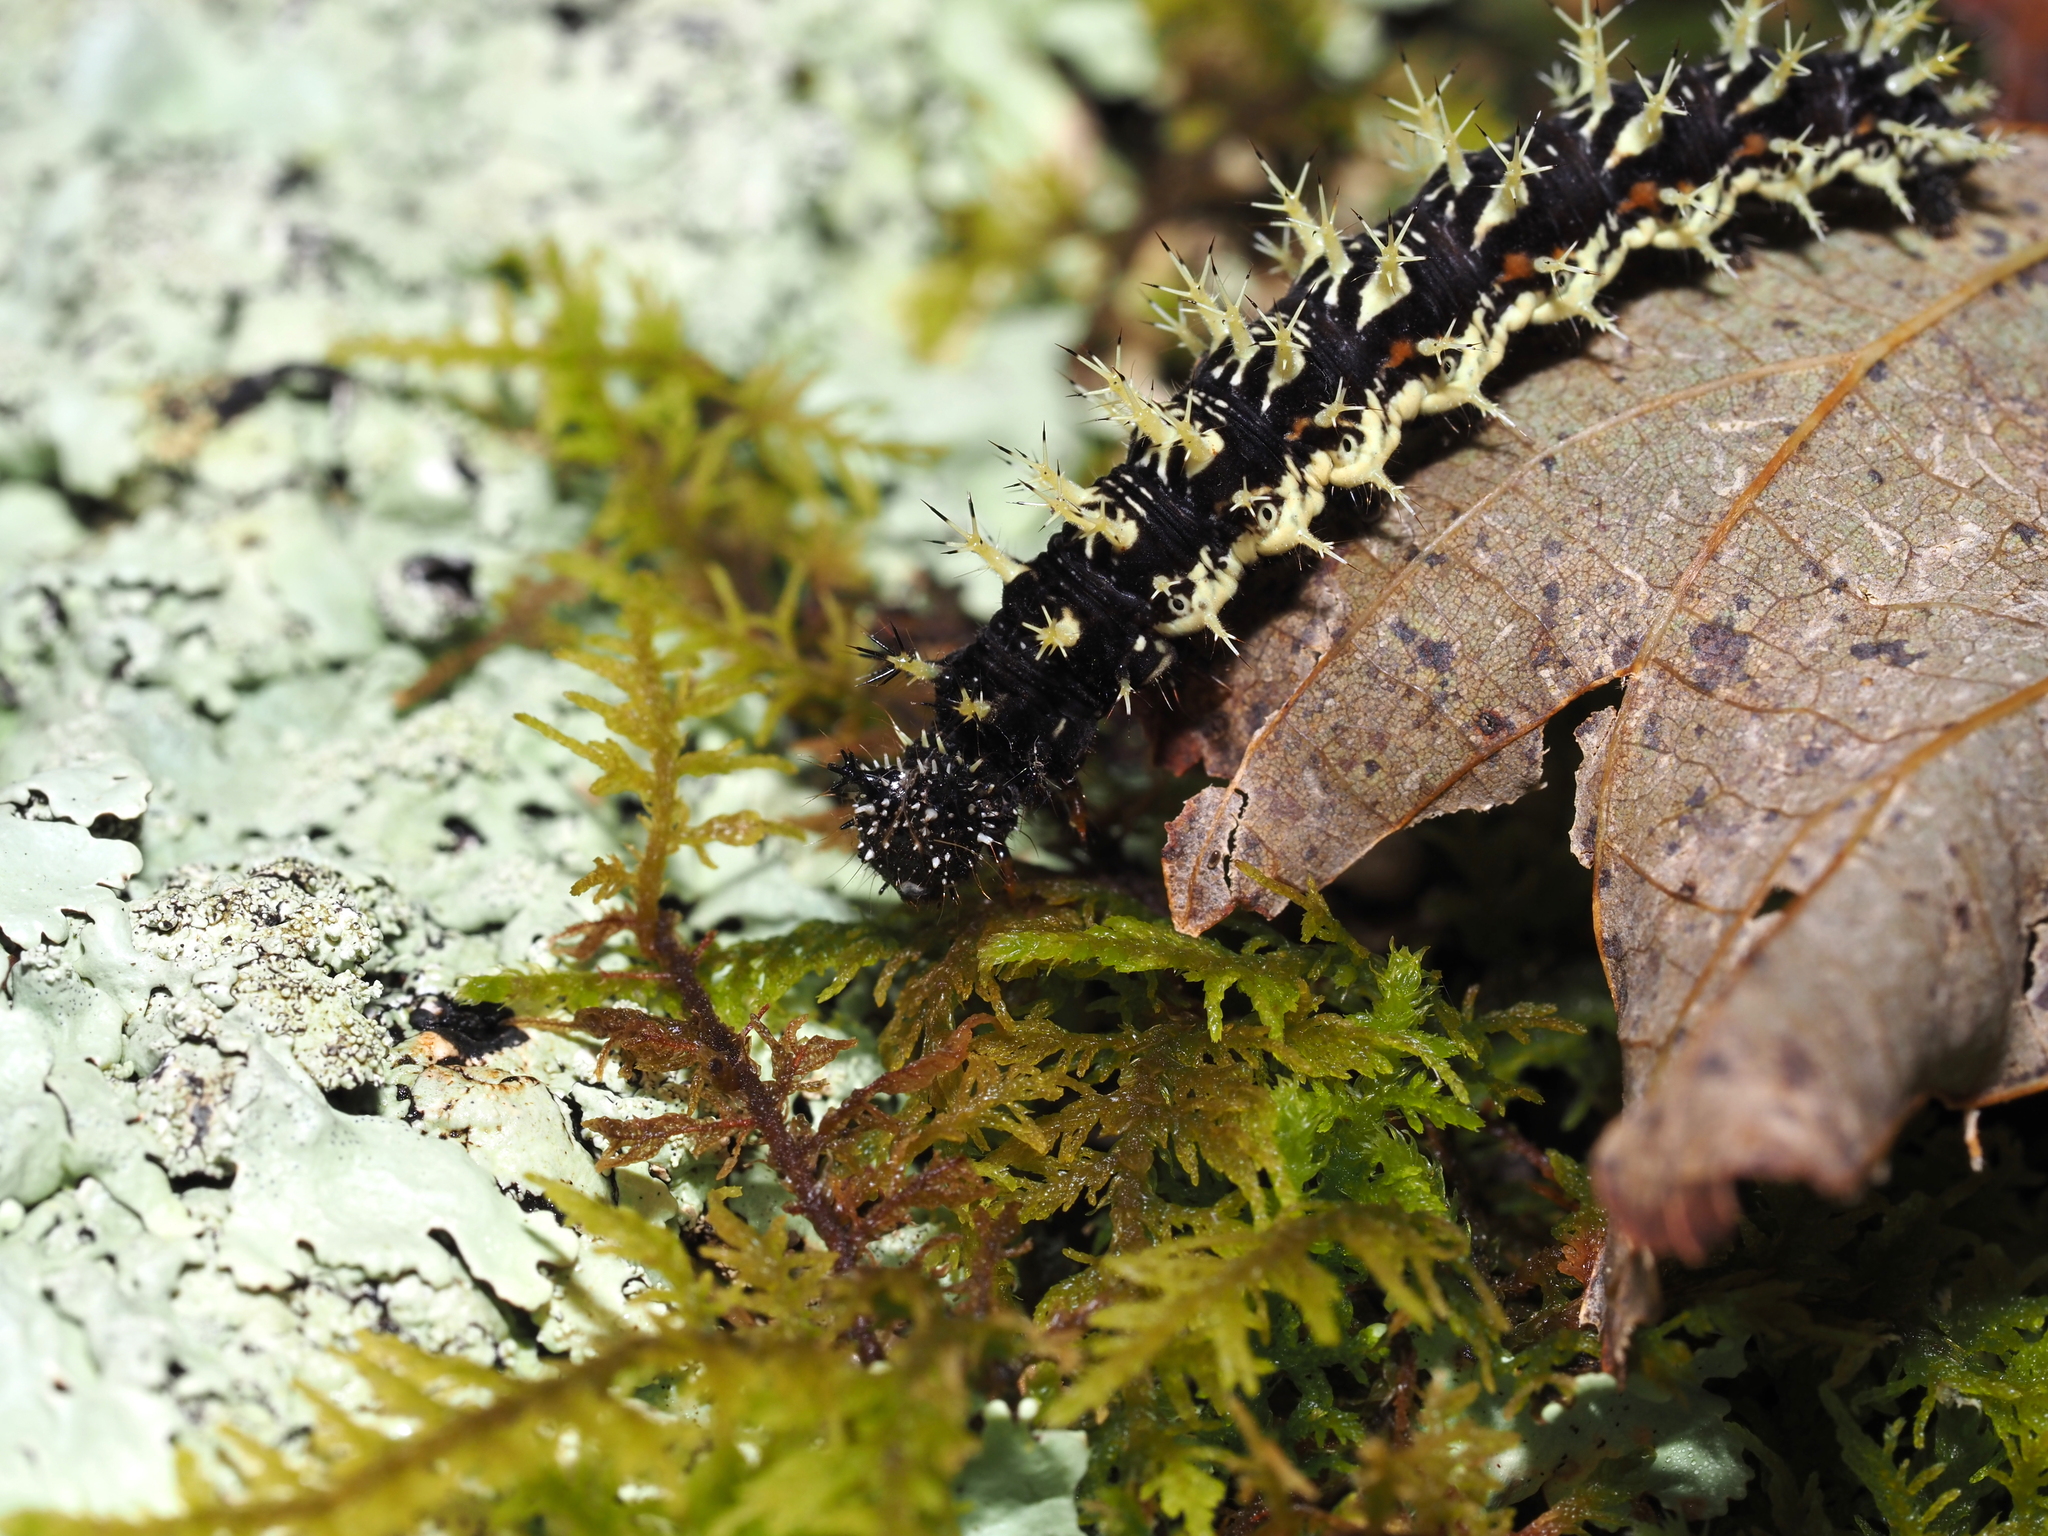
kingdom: Animalia
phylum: Arthropoda
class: Insecta
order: Lepidoptera
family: Nymphalidae
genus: Polygonia
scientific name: Polygonia comma
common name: Eastern comma
